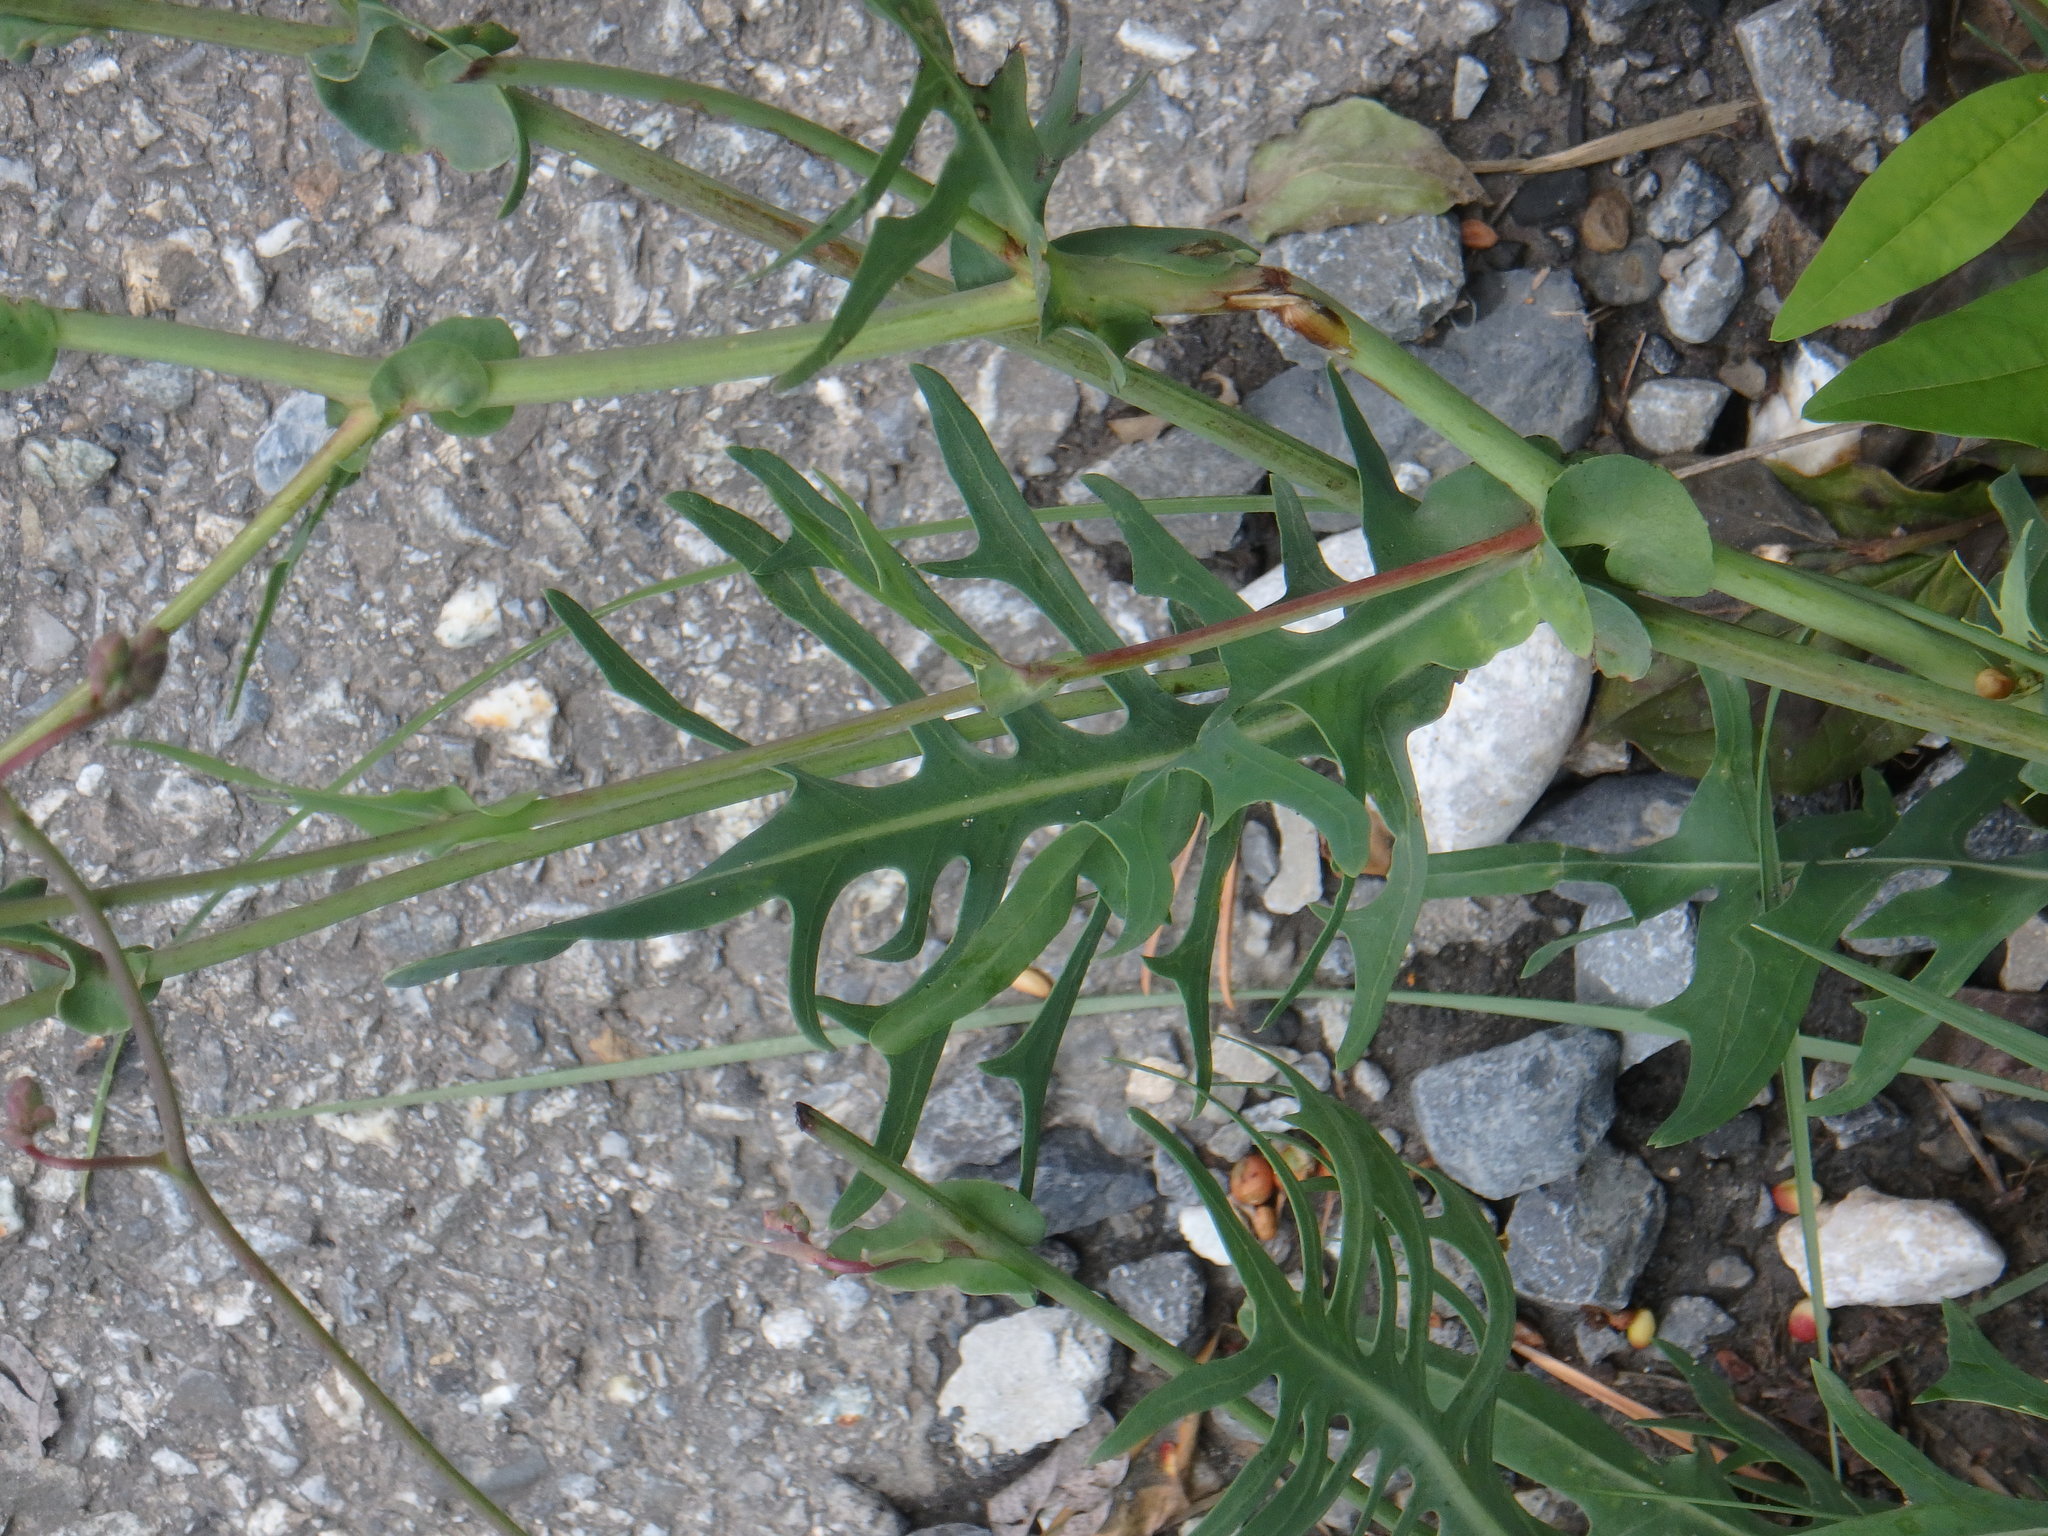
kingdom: Plantae
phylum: Tracheophyta
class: Magnoliopsida
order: Asterales
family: Asteraceae
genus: Lactuca
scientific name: Lactuca perennis
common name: Mountain lettuce
